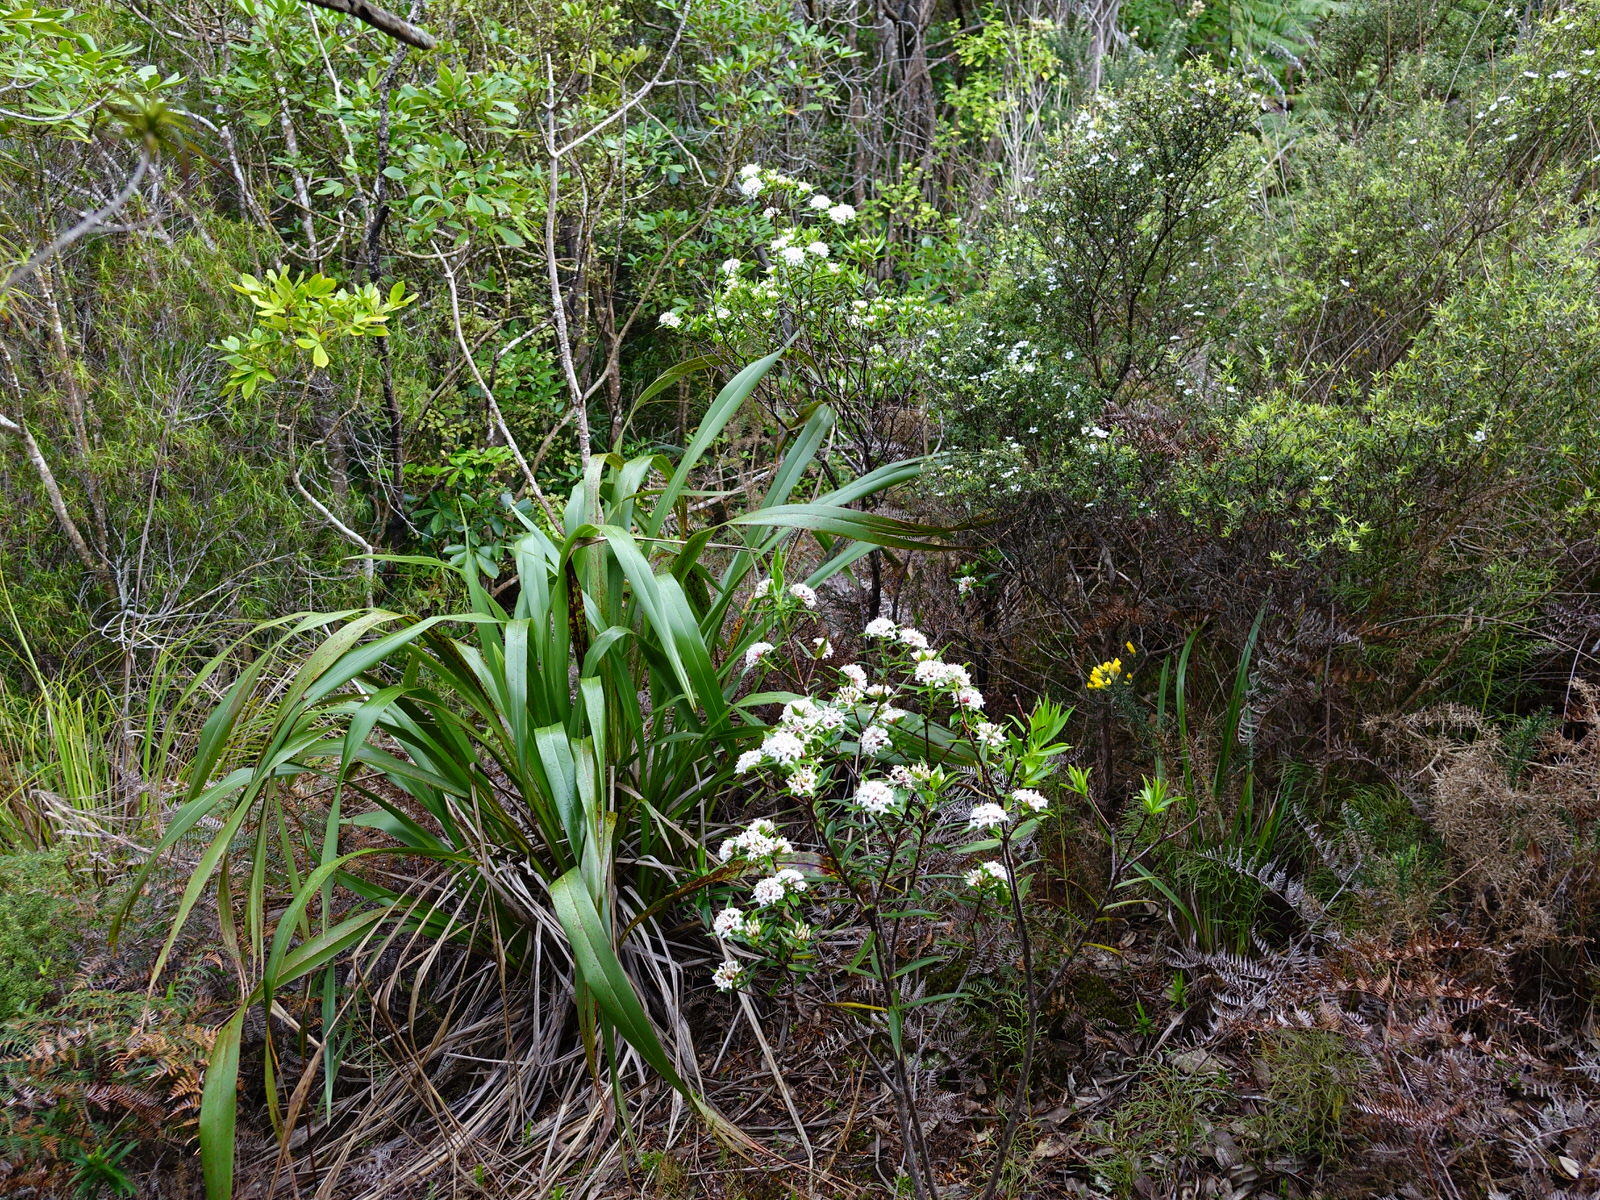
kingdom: Plantae
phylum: Tracheophyta
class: Magnoliopsida
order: Malvales
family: Thymelaeaceae
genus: Pimelea
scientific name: Pimelea longifolia
